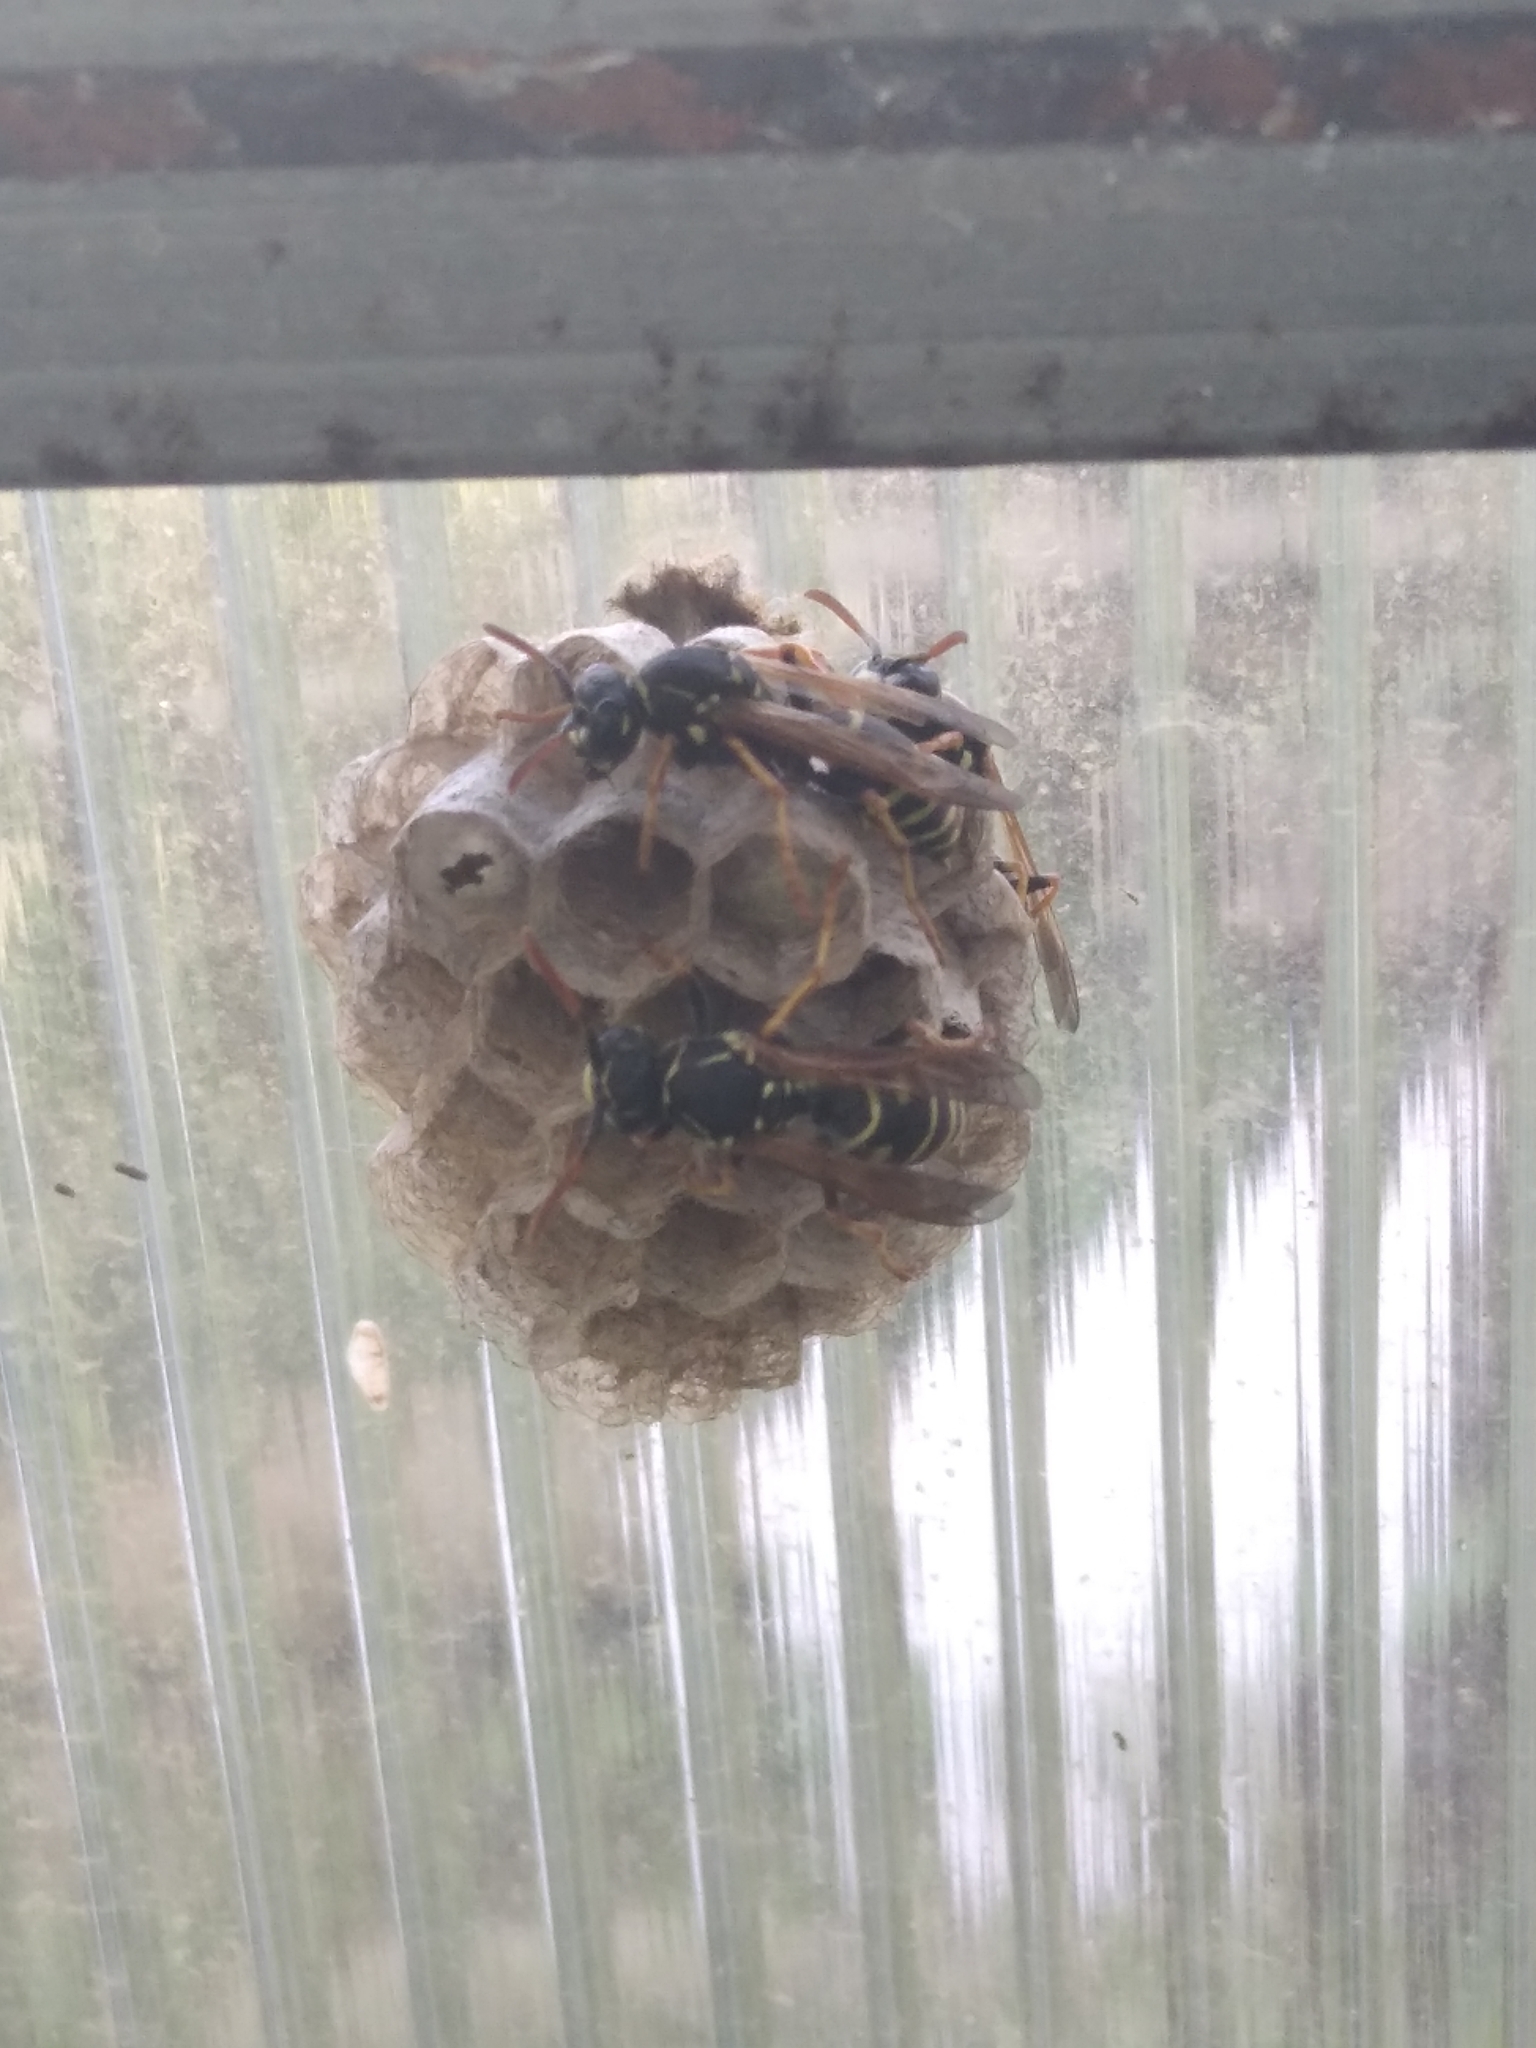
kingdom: Animalia
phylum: Arthropoda
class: Insecta
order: Hymenoptera
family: Eumenidae
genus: Polistes
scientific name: Polistes nimpha
